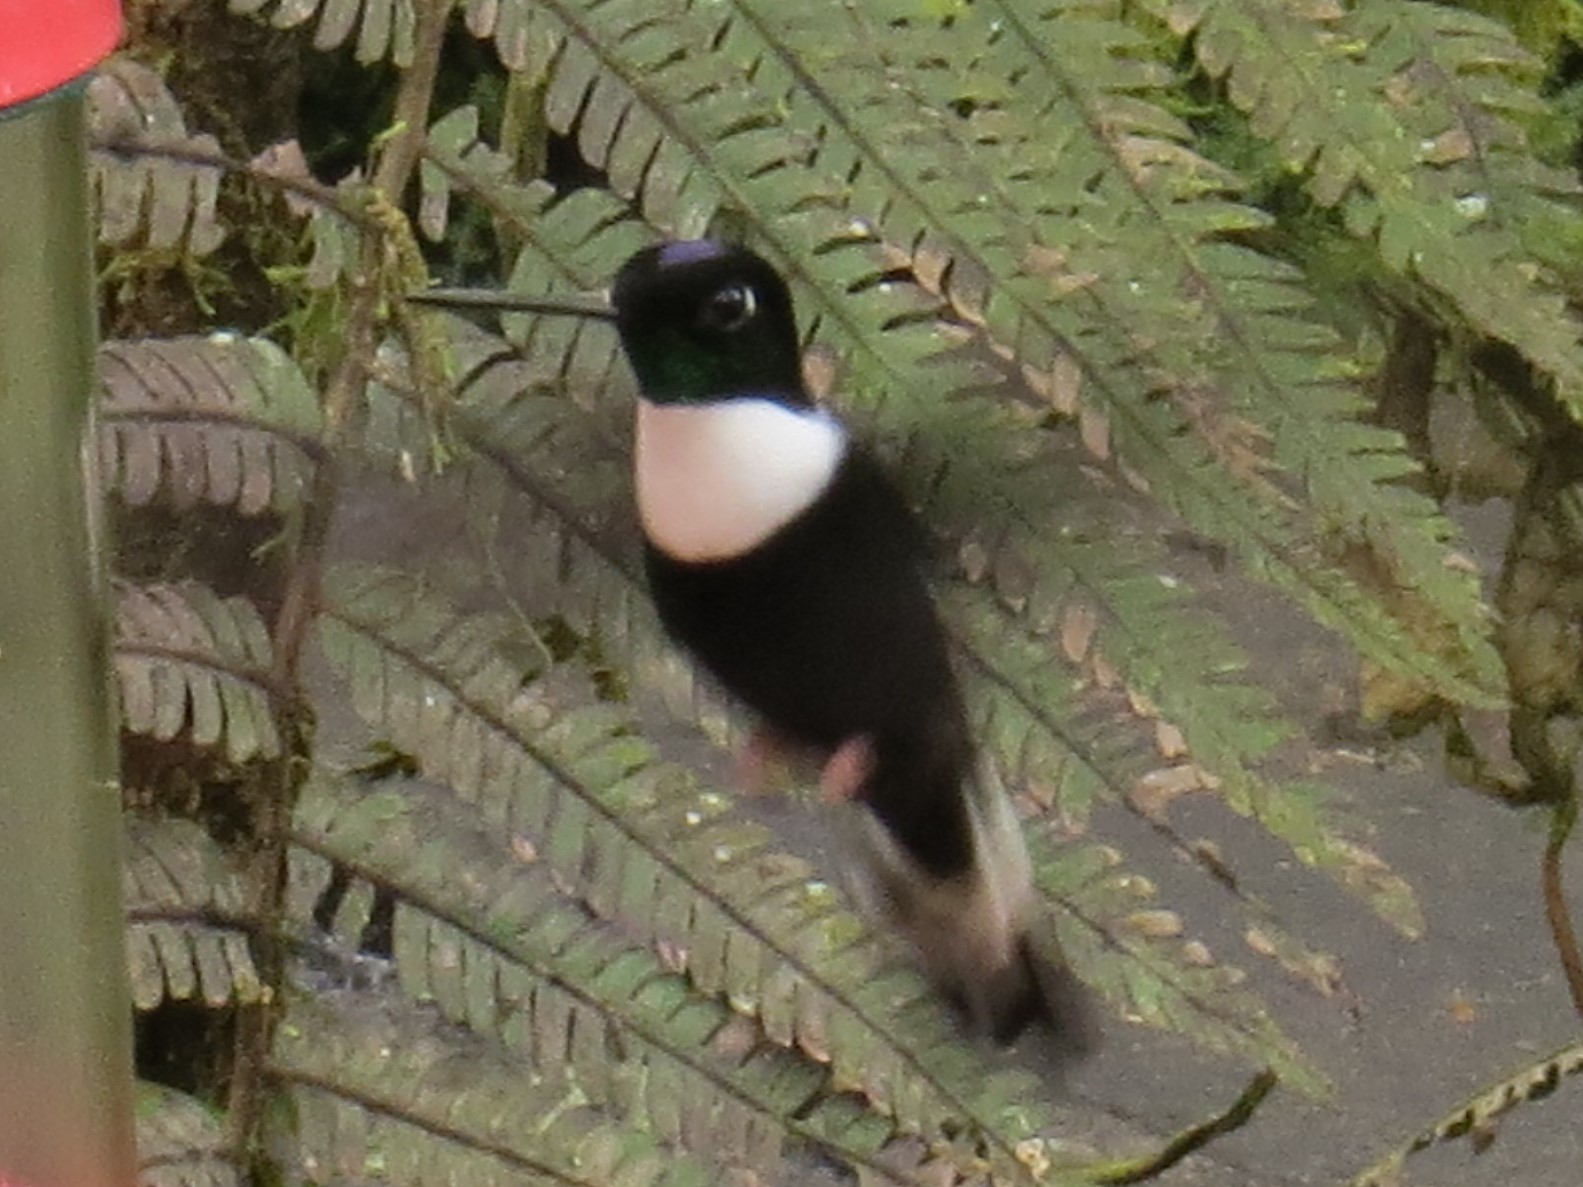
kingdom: Animalia
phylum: Chordata
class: Aves
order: Apodiformes
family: Trochilidae
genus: Coeligena
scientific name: Coeligena torquata
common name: Collared inca
